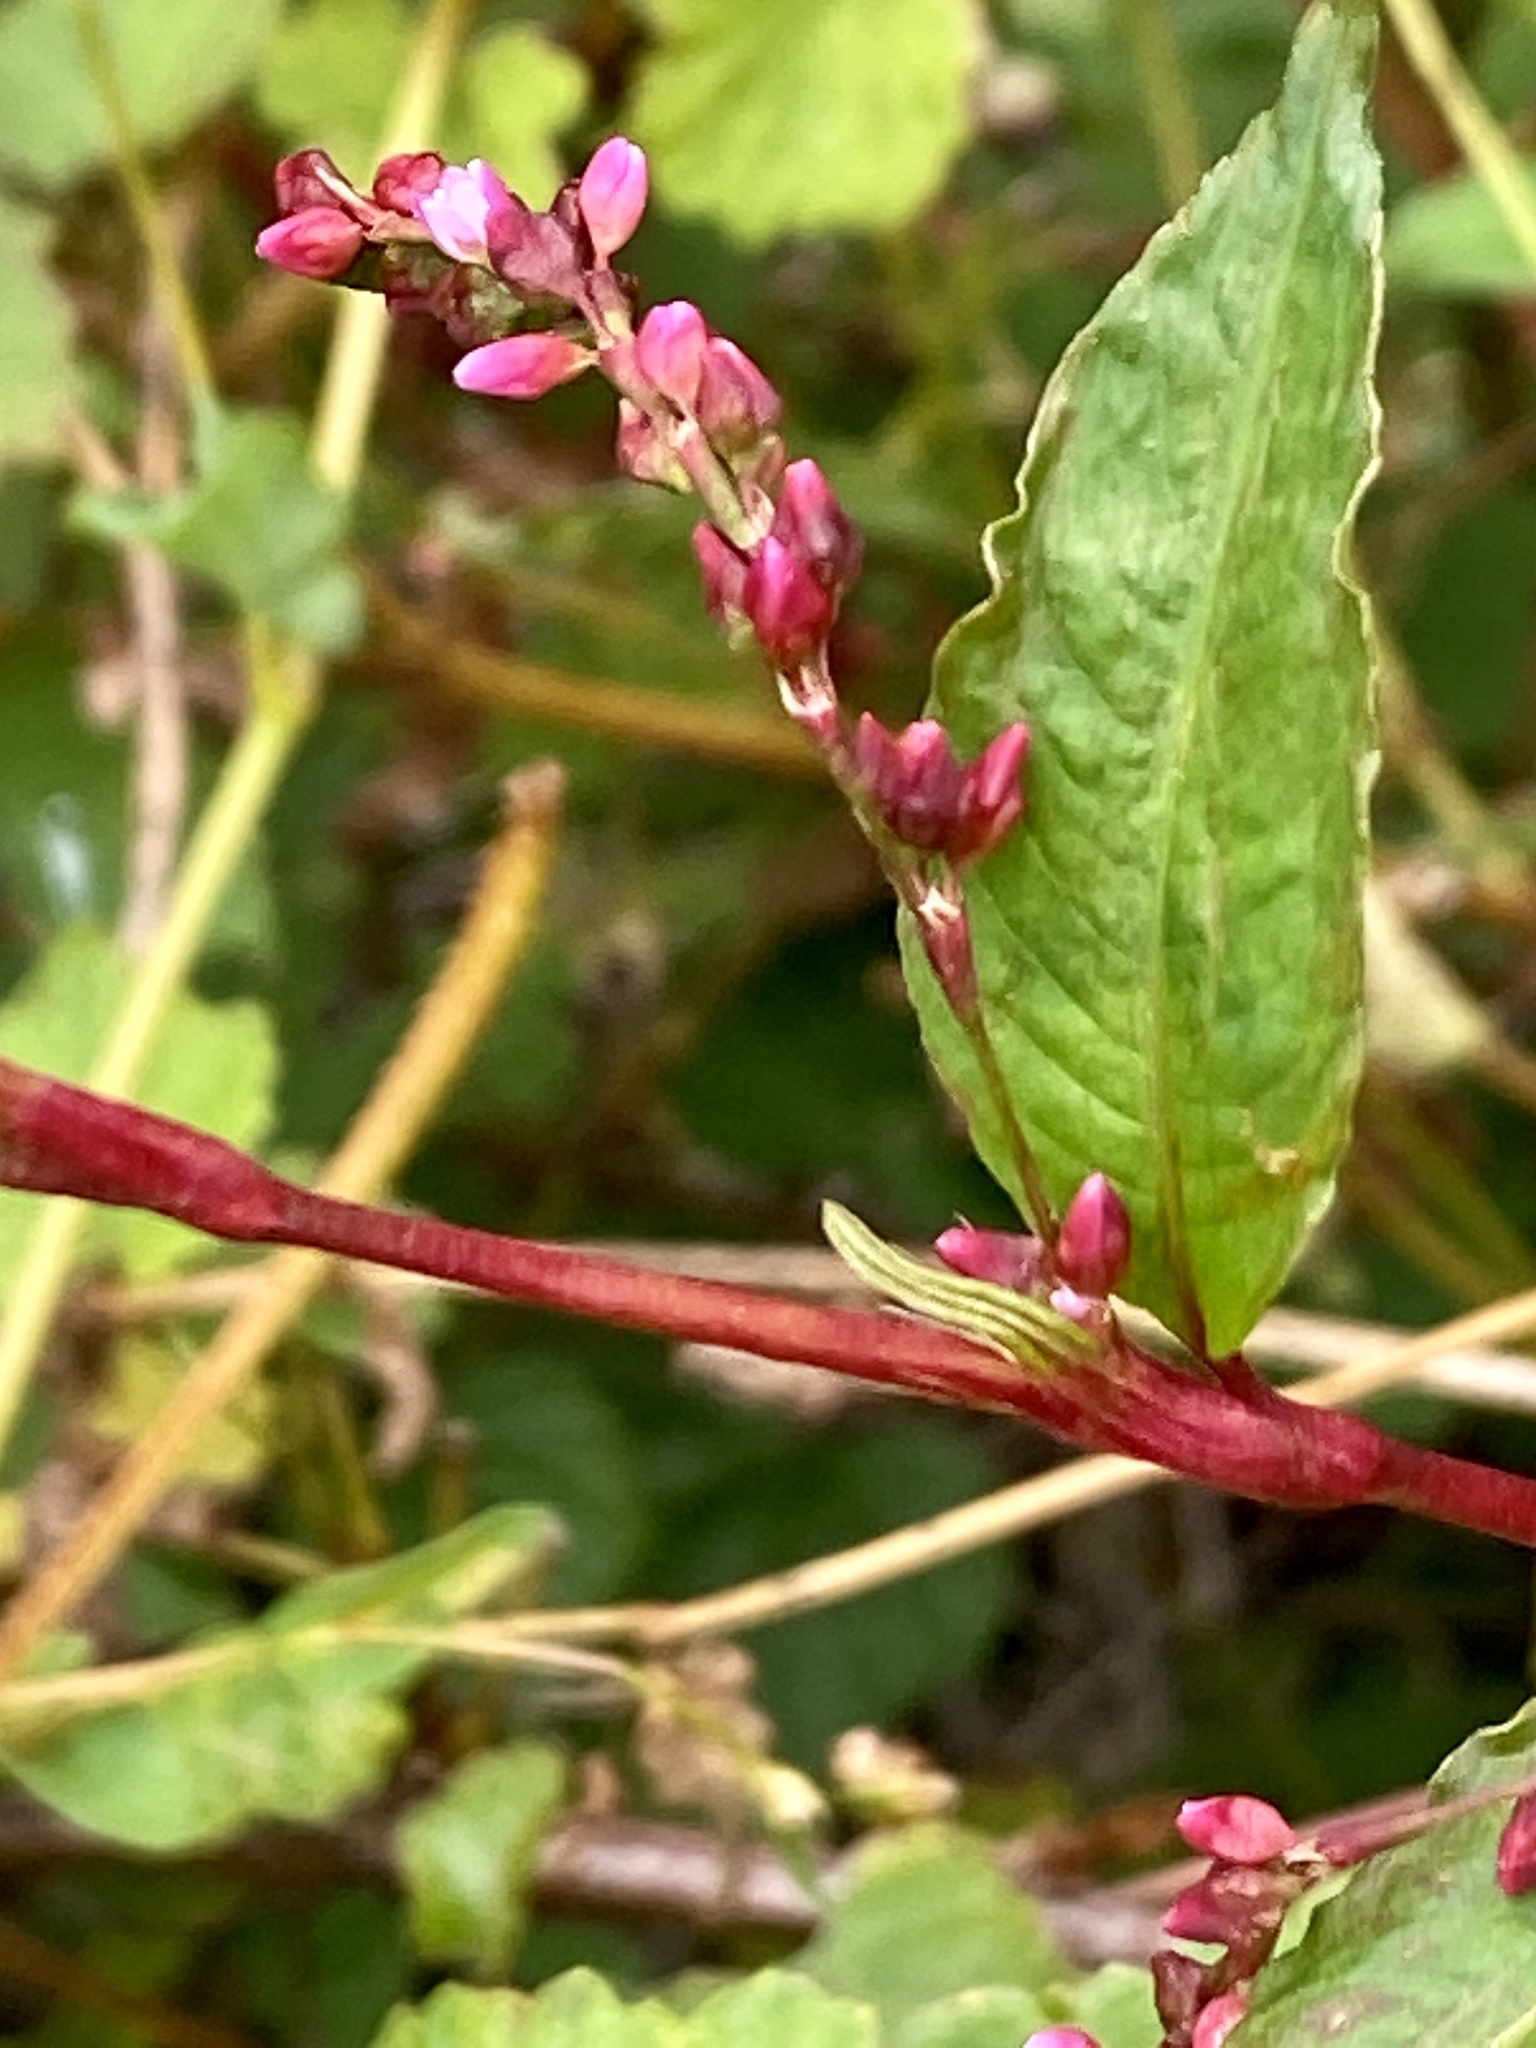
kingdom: Plantae
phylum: Tracheophyta
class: Magnoliopsida
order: Caryophyllales
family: Polygonaceae
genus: Persicaria
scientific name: Persicaria hydropiper
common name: Water-pepper
